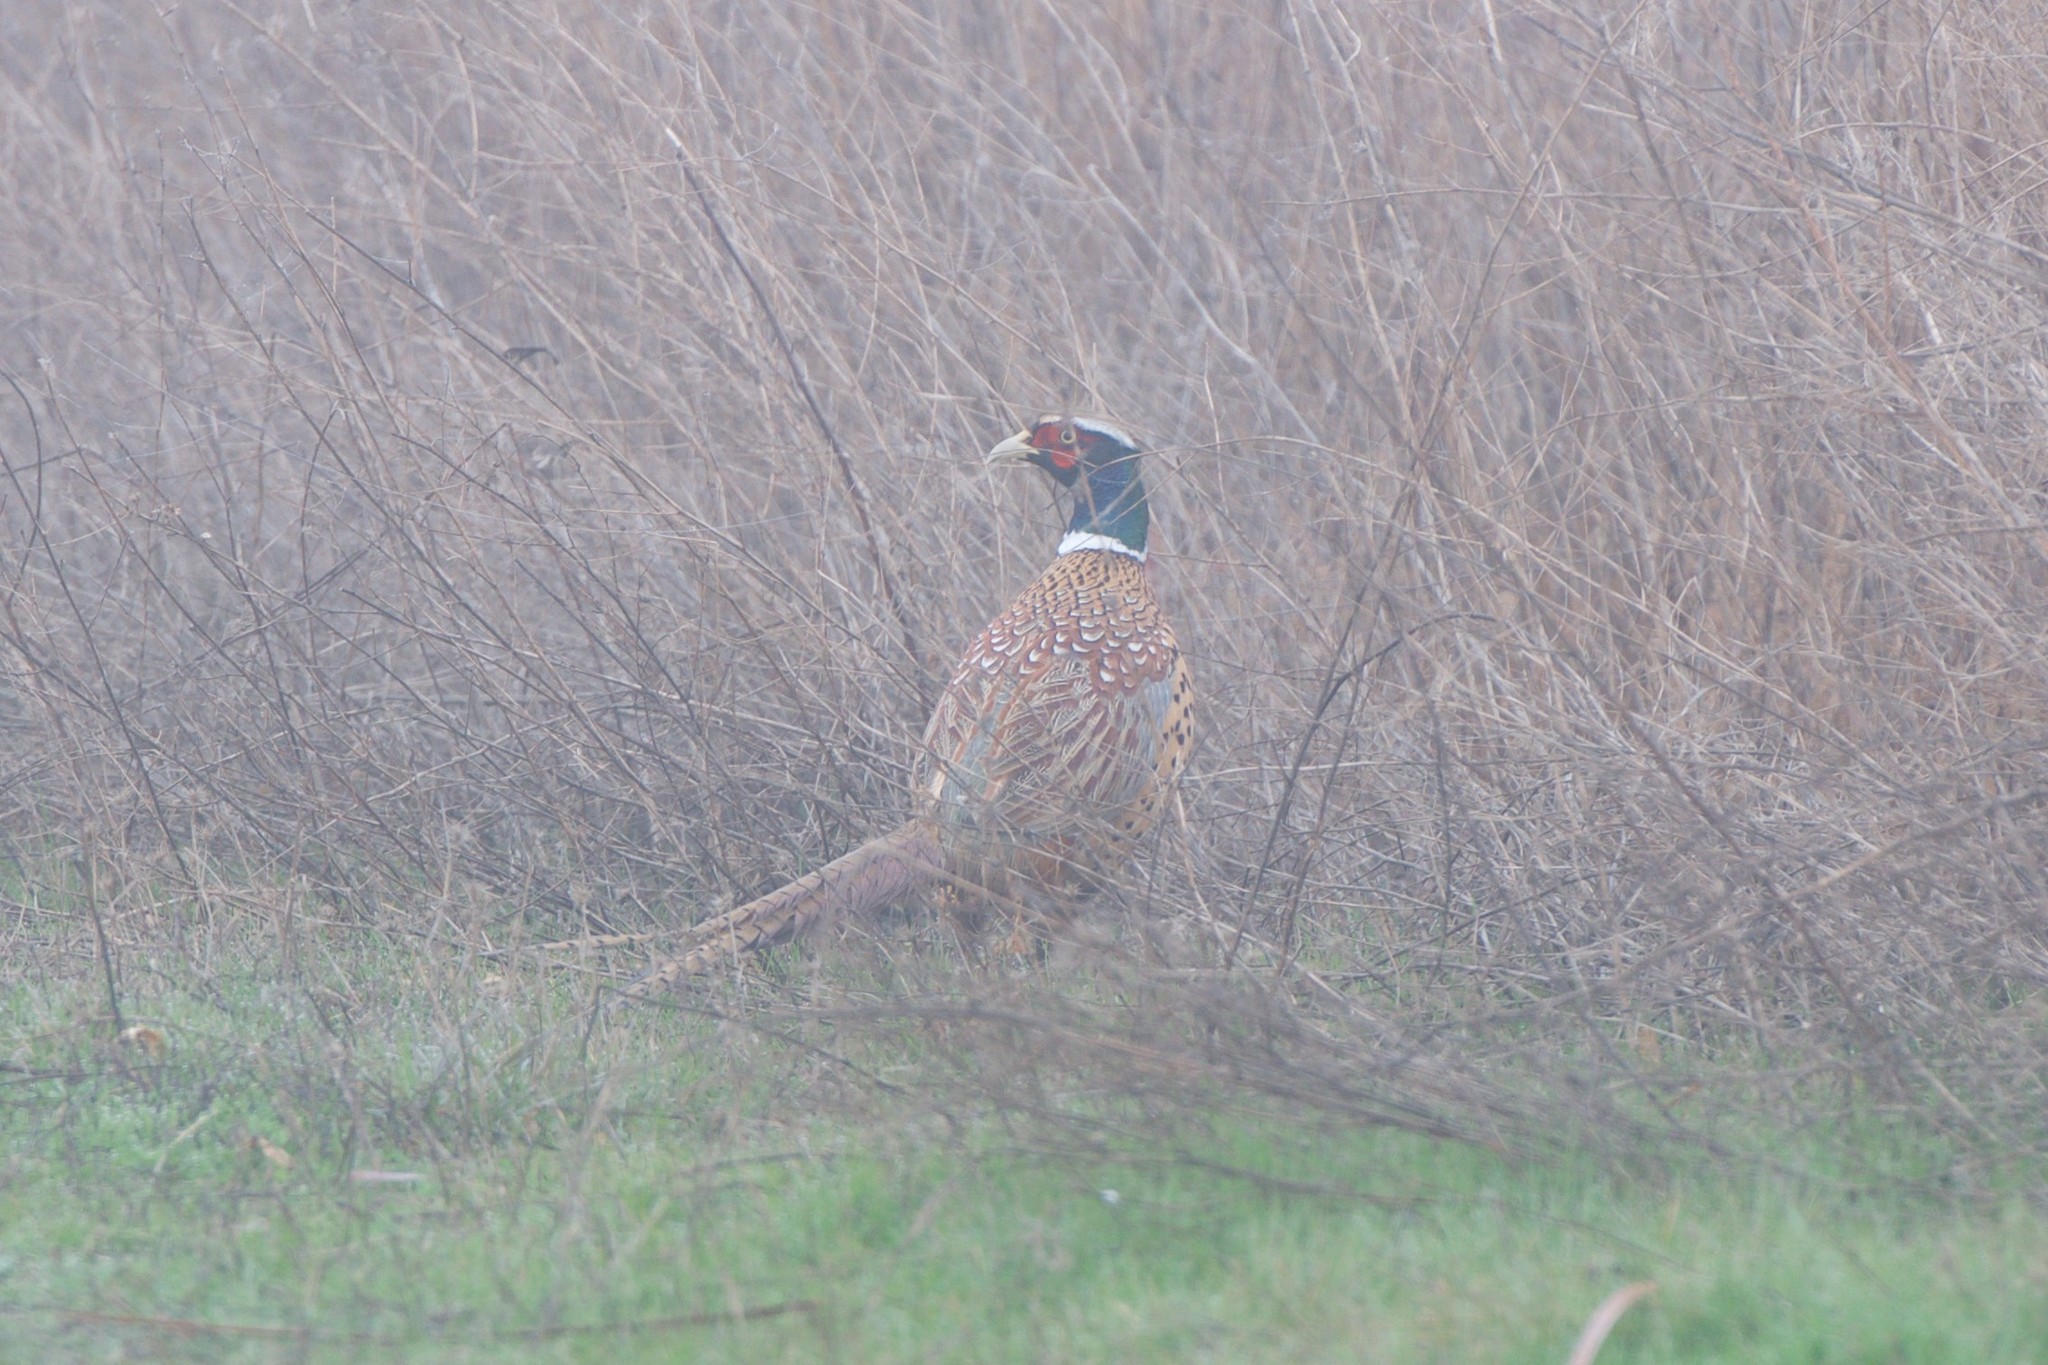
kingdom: Animalia
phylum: Chordata
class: Aves
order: Galliformes
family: Phasianidae
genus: Phasianus
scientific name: Phasianus colchicus
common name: Common pheasant
